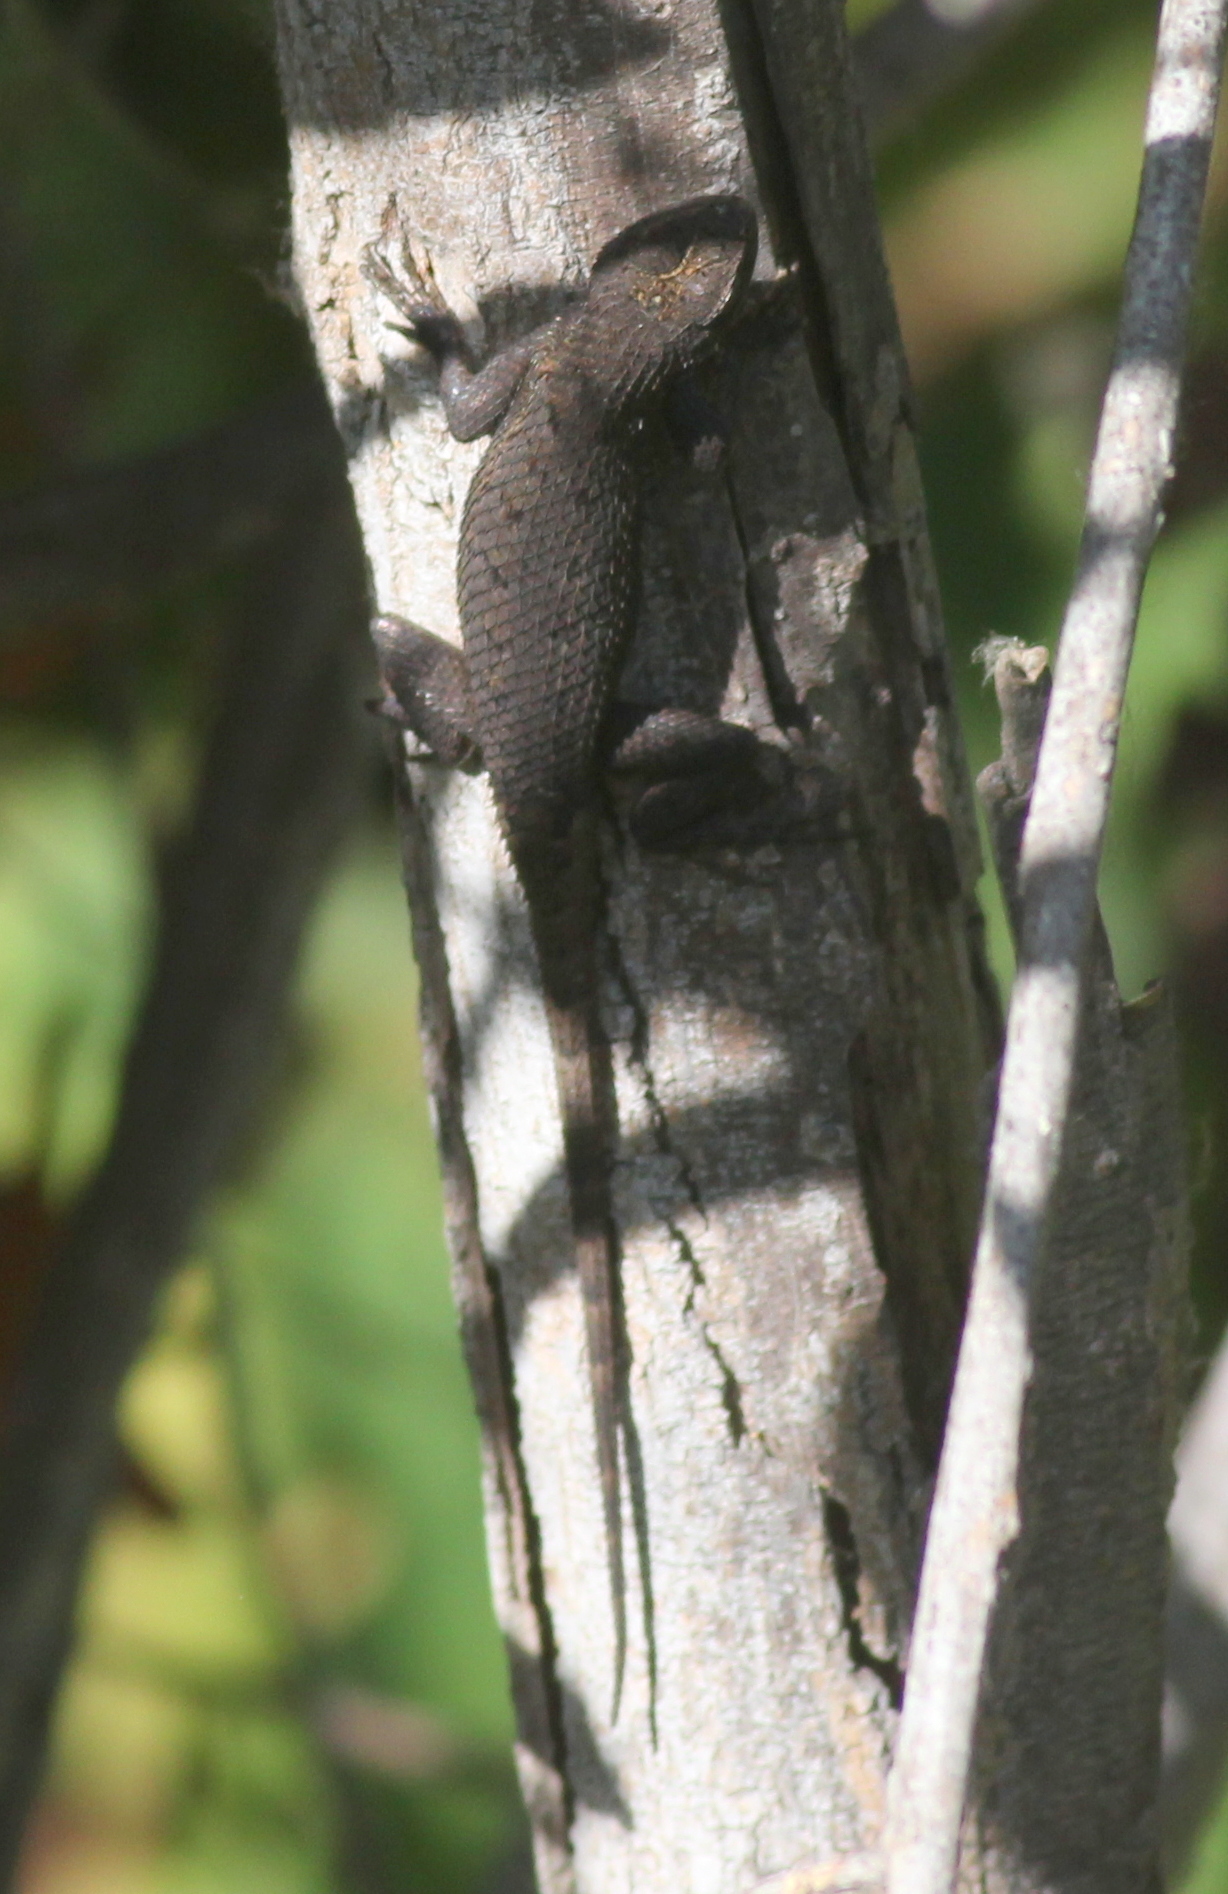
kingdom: Animalia
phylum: Chordata
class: Squamata
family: Phrynosomatidae
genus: Sceloporus
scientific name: Sceloporus occidentalis
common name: Western fence lizard
